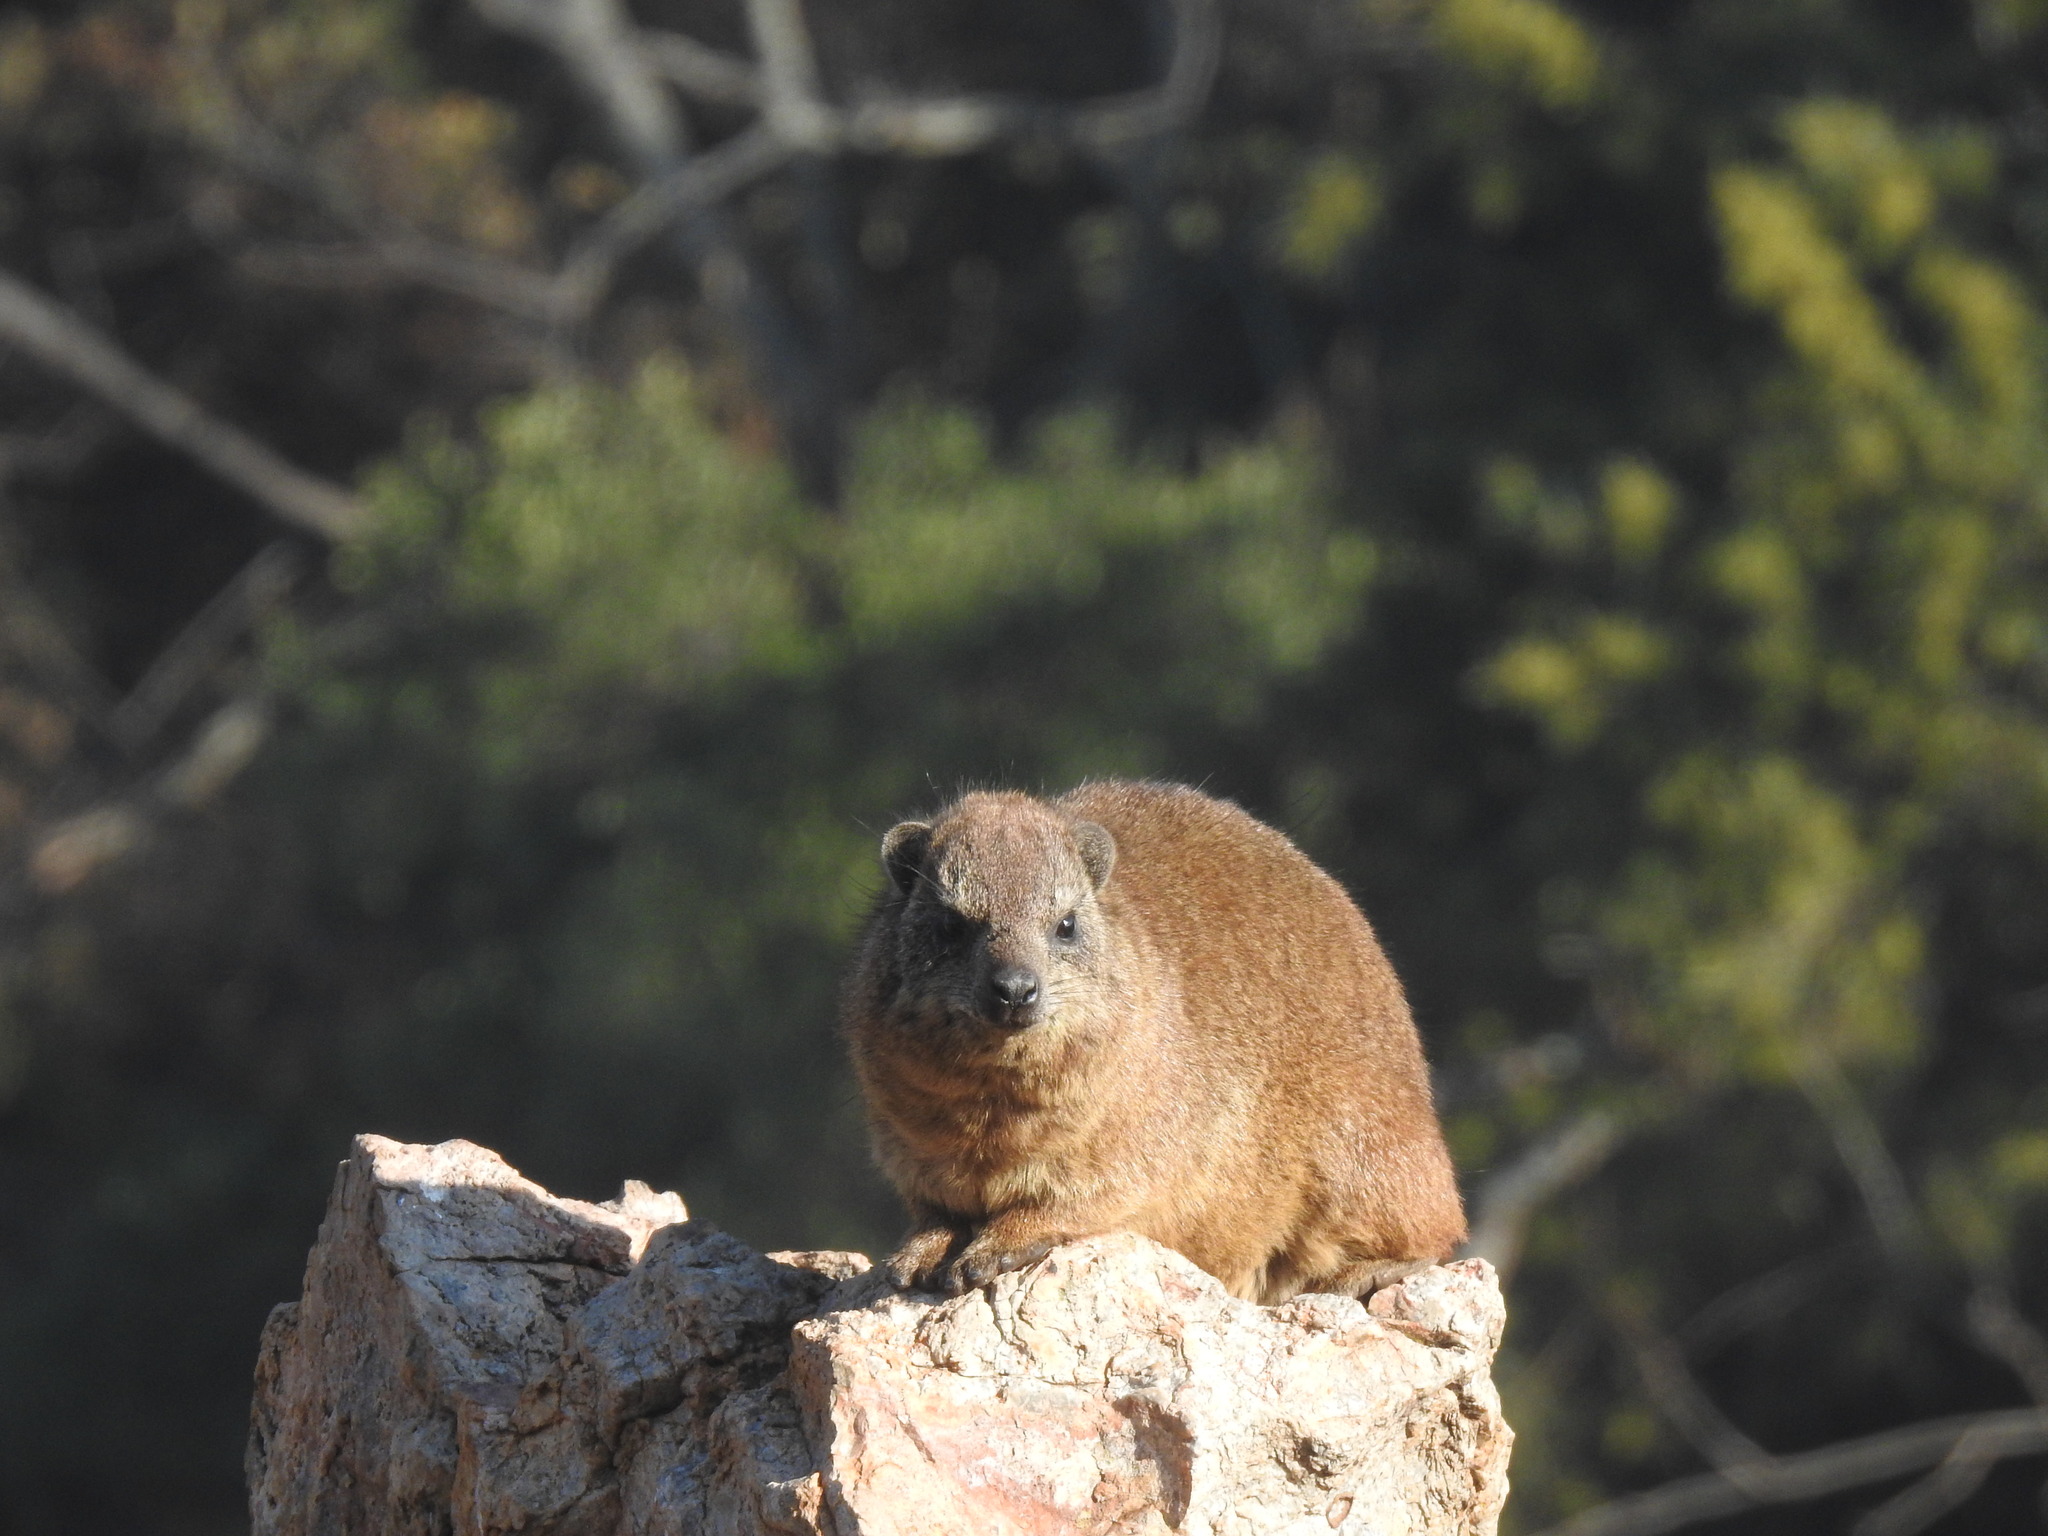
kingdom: Animalia
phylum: Chordata
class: Mammalia
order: Hyracoidea
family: Procaviidae
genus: Procavia
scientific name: Procavia capensis
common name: Rock hyrax
